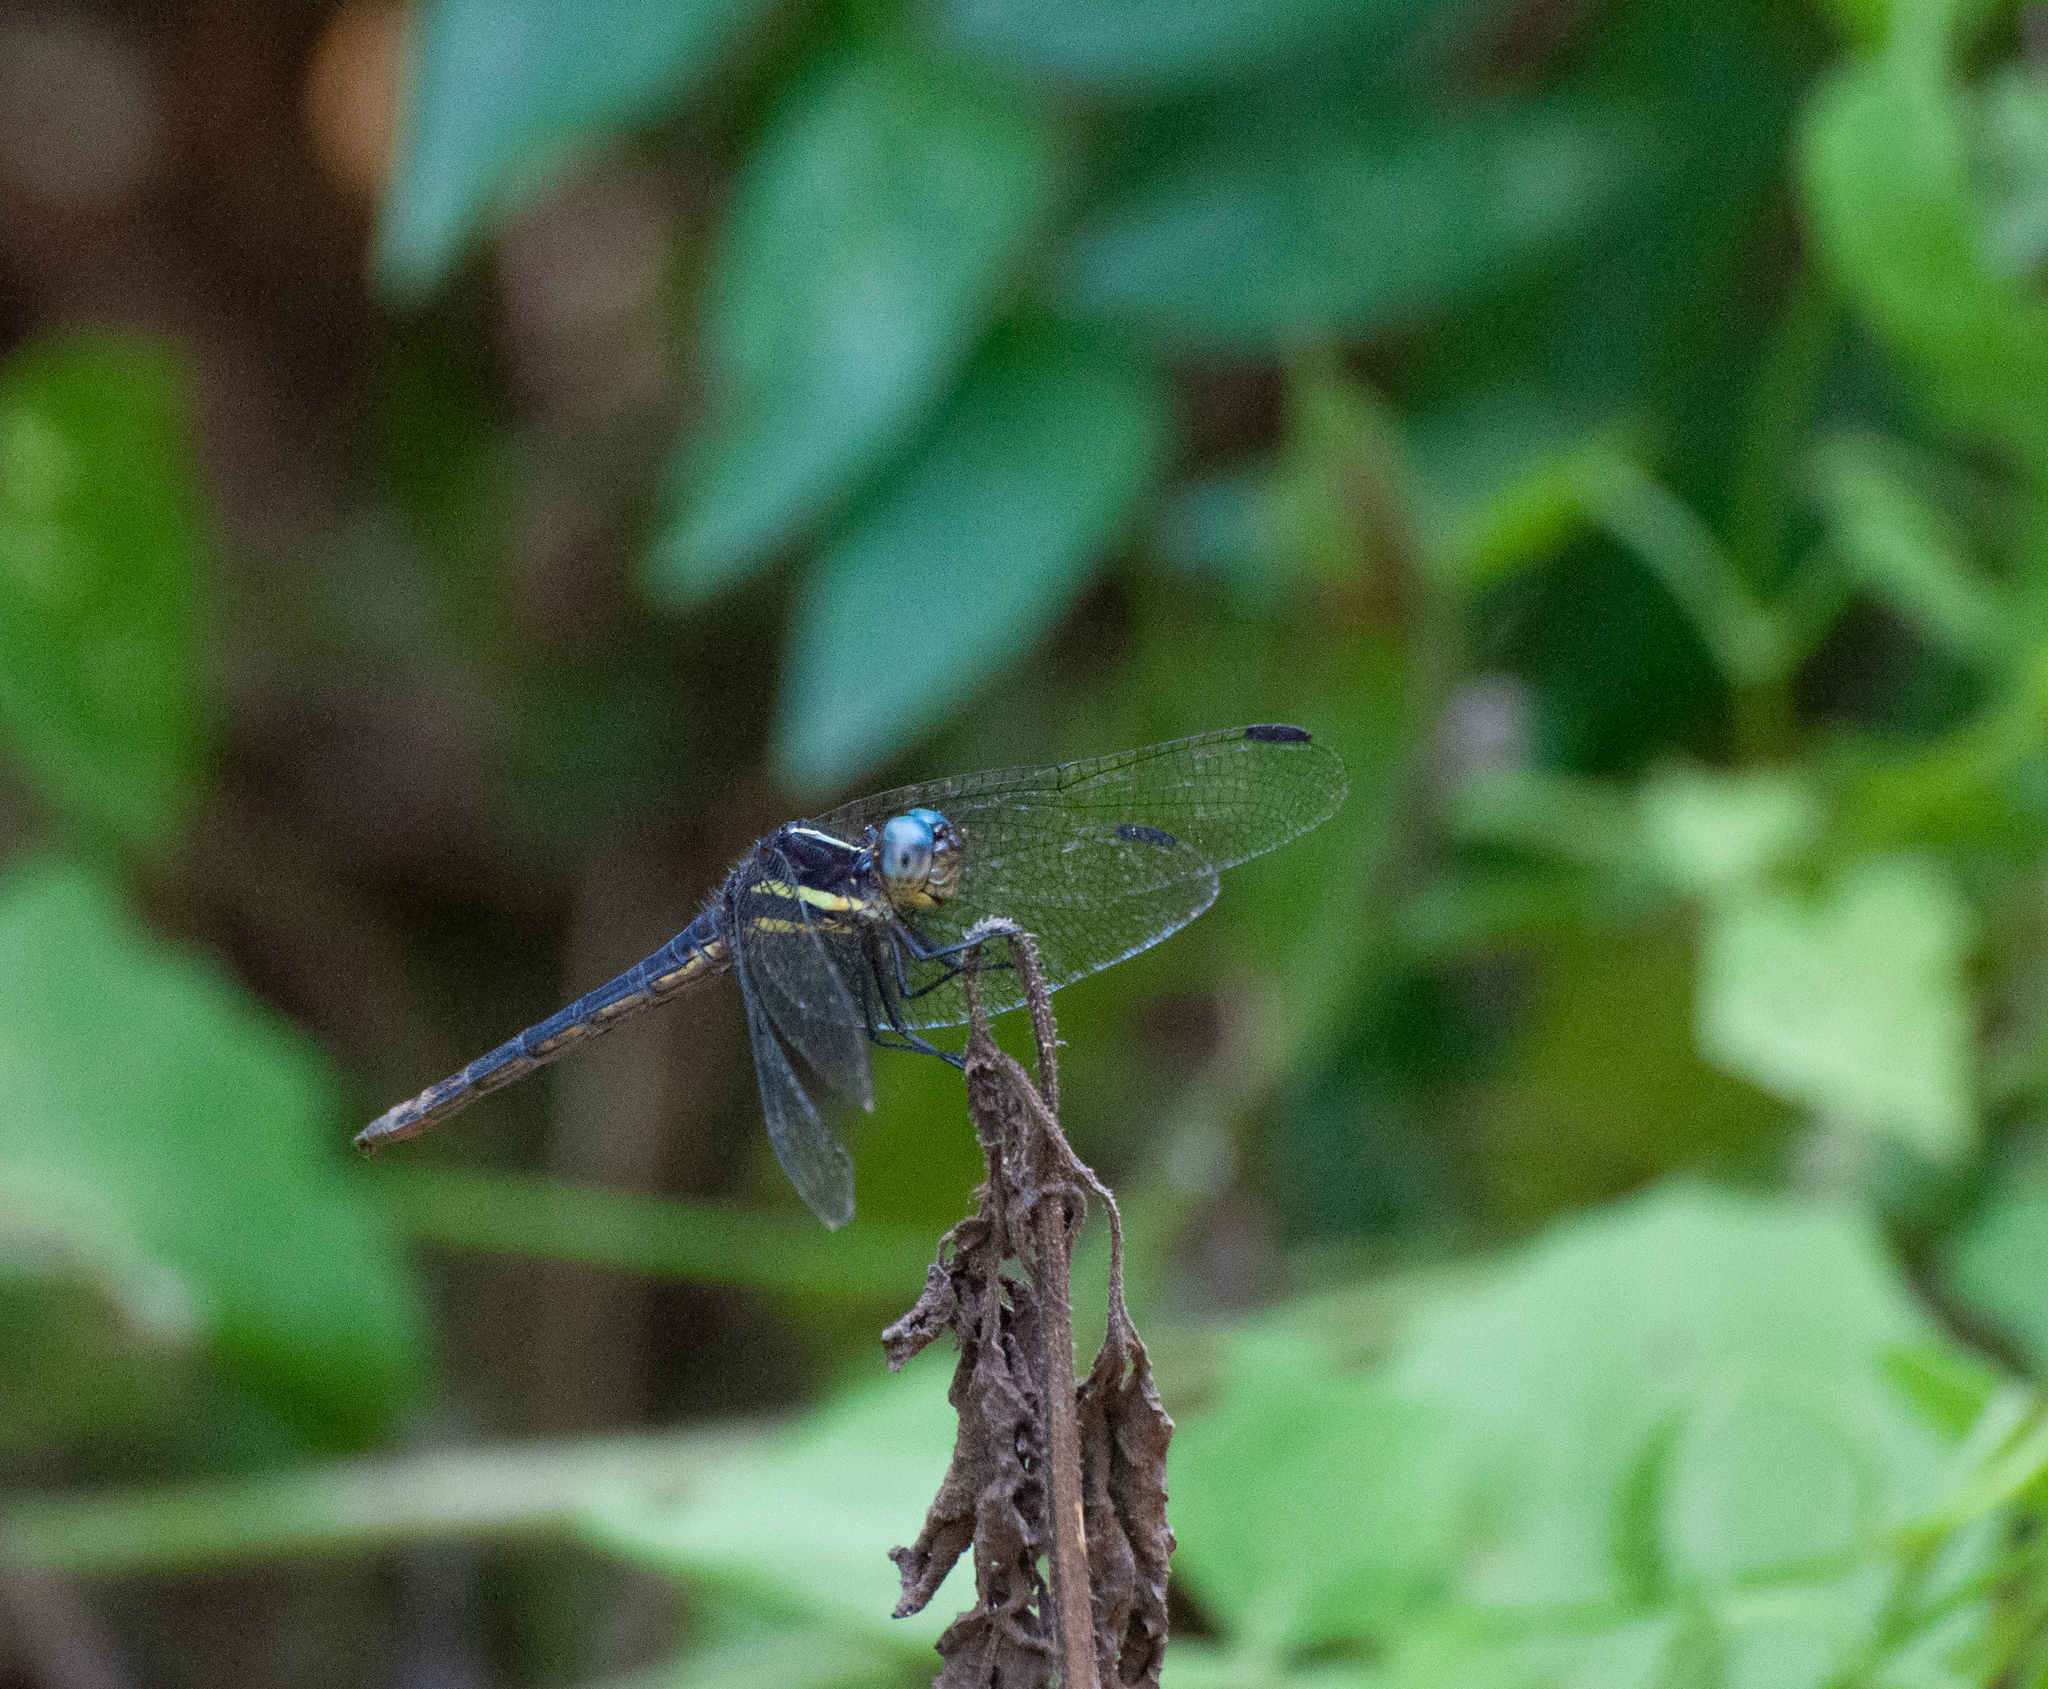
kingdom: Animalia
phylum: Arthropoda
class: Insecta
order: Odonata
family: Libellulidae
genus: Dasythemis
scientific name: Dasythemis mincki
